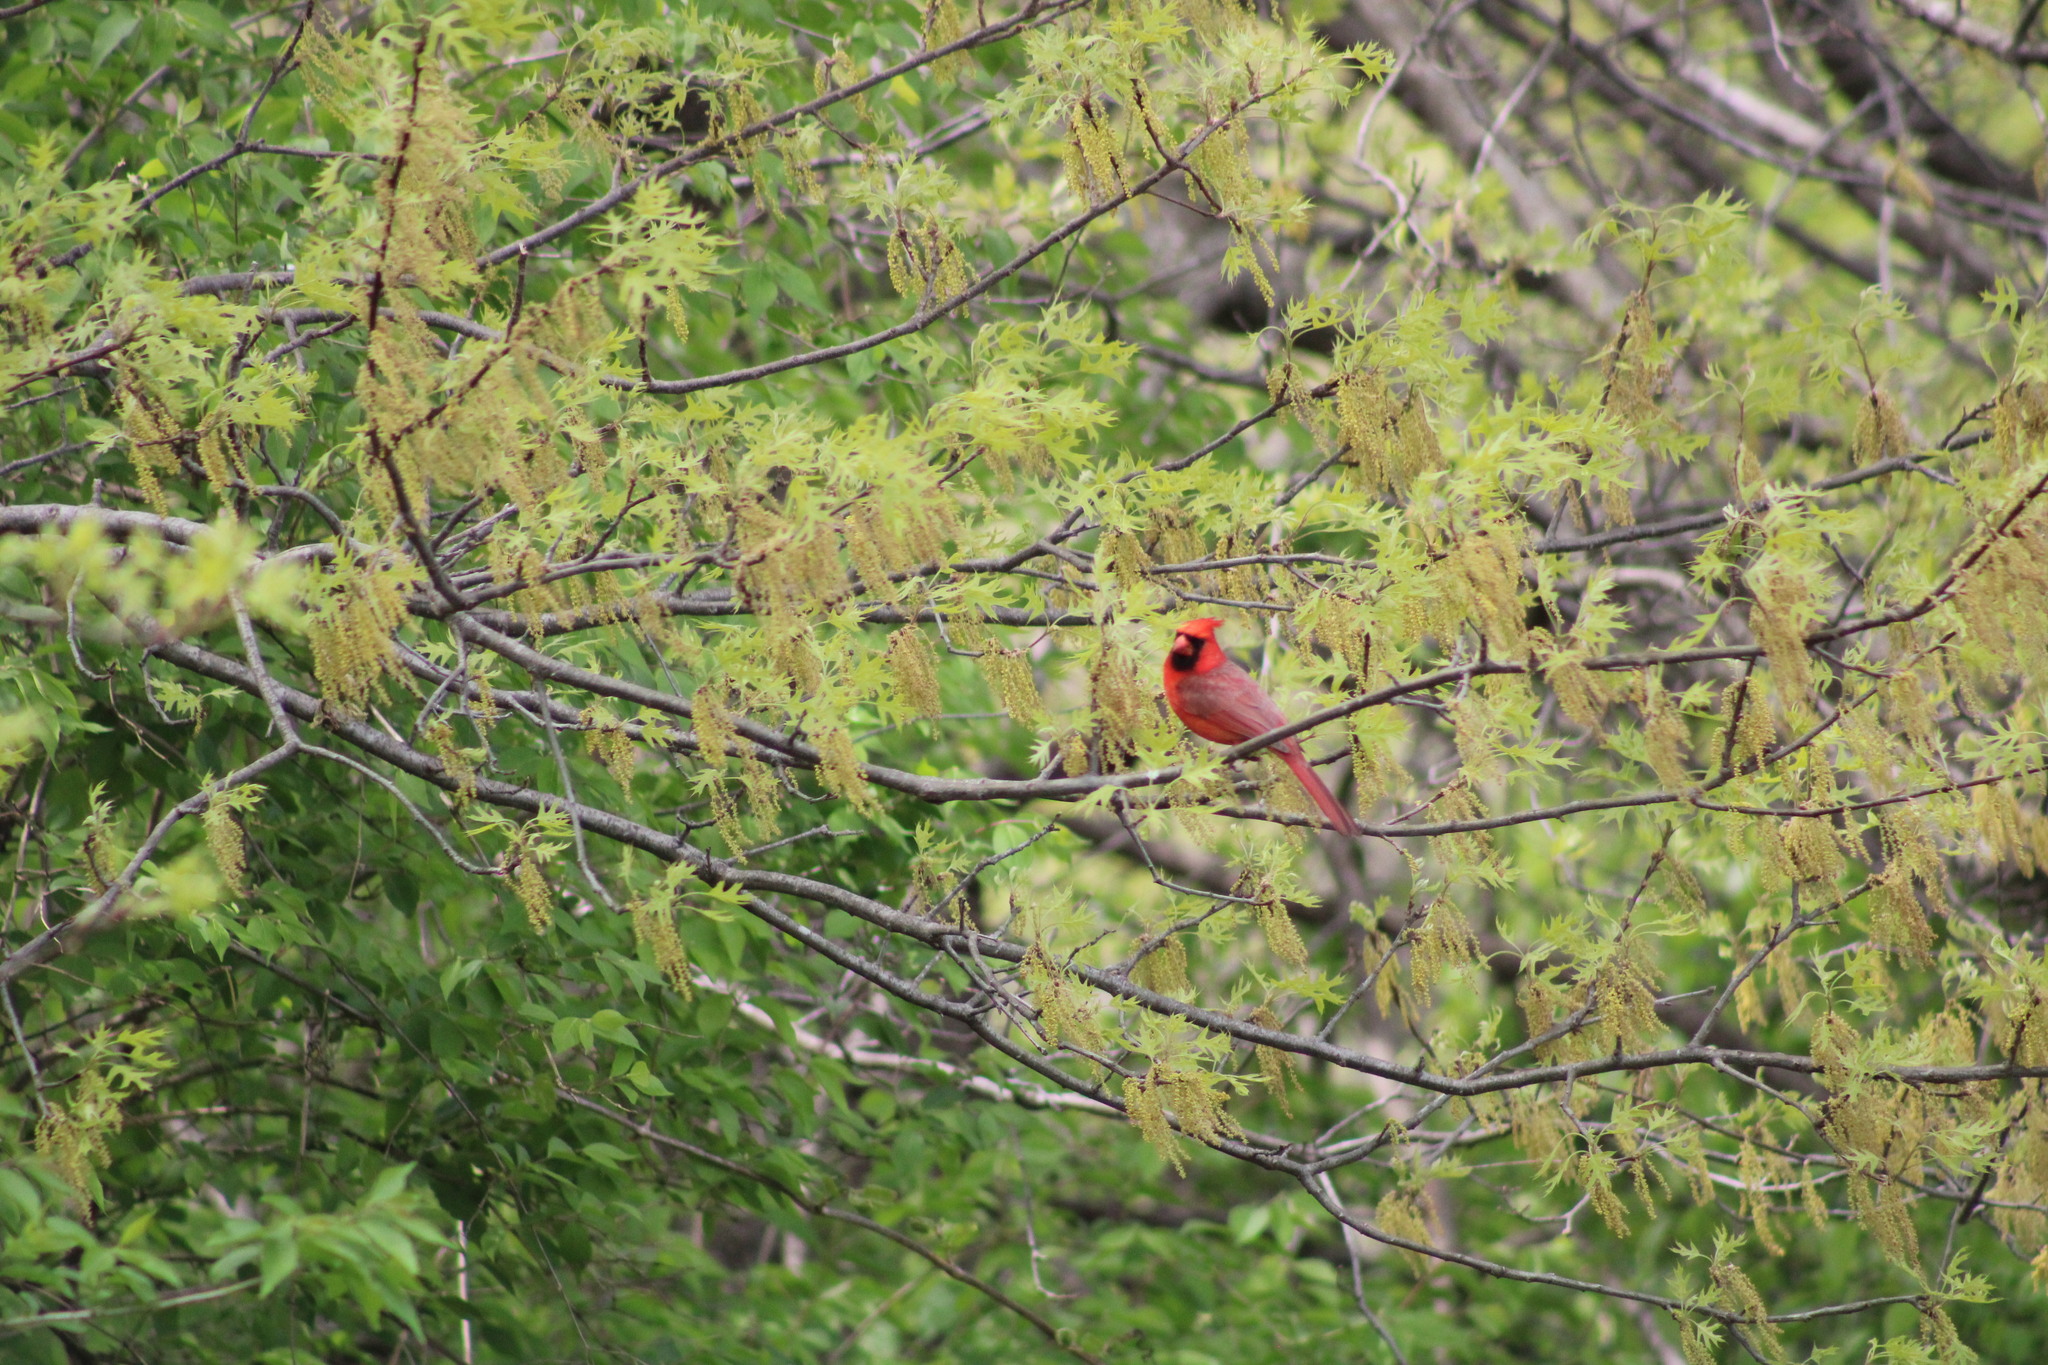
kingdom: Animalia
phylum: Chordata
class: Aves
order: Passeriformes
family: Cardinalidae
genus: Cardinalis
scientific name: Cardinalis cardinalis
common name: Northern cardinal
